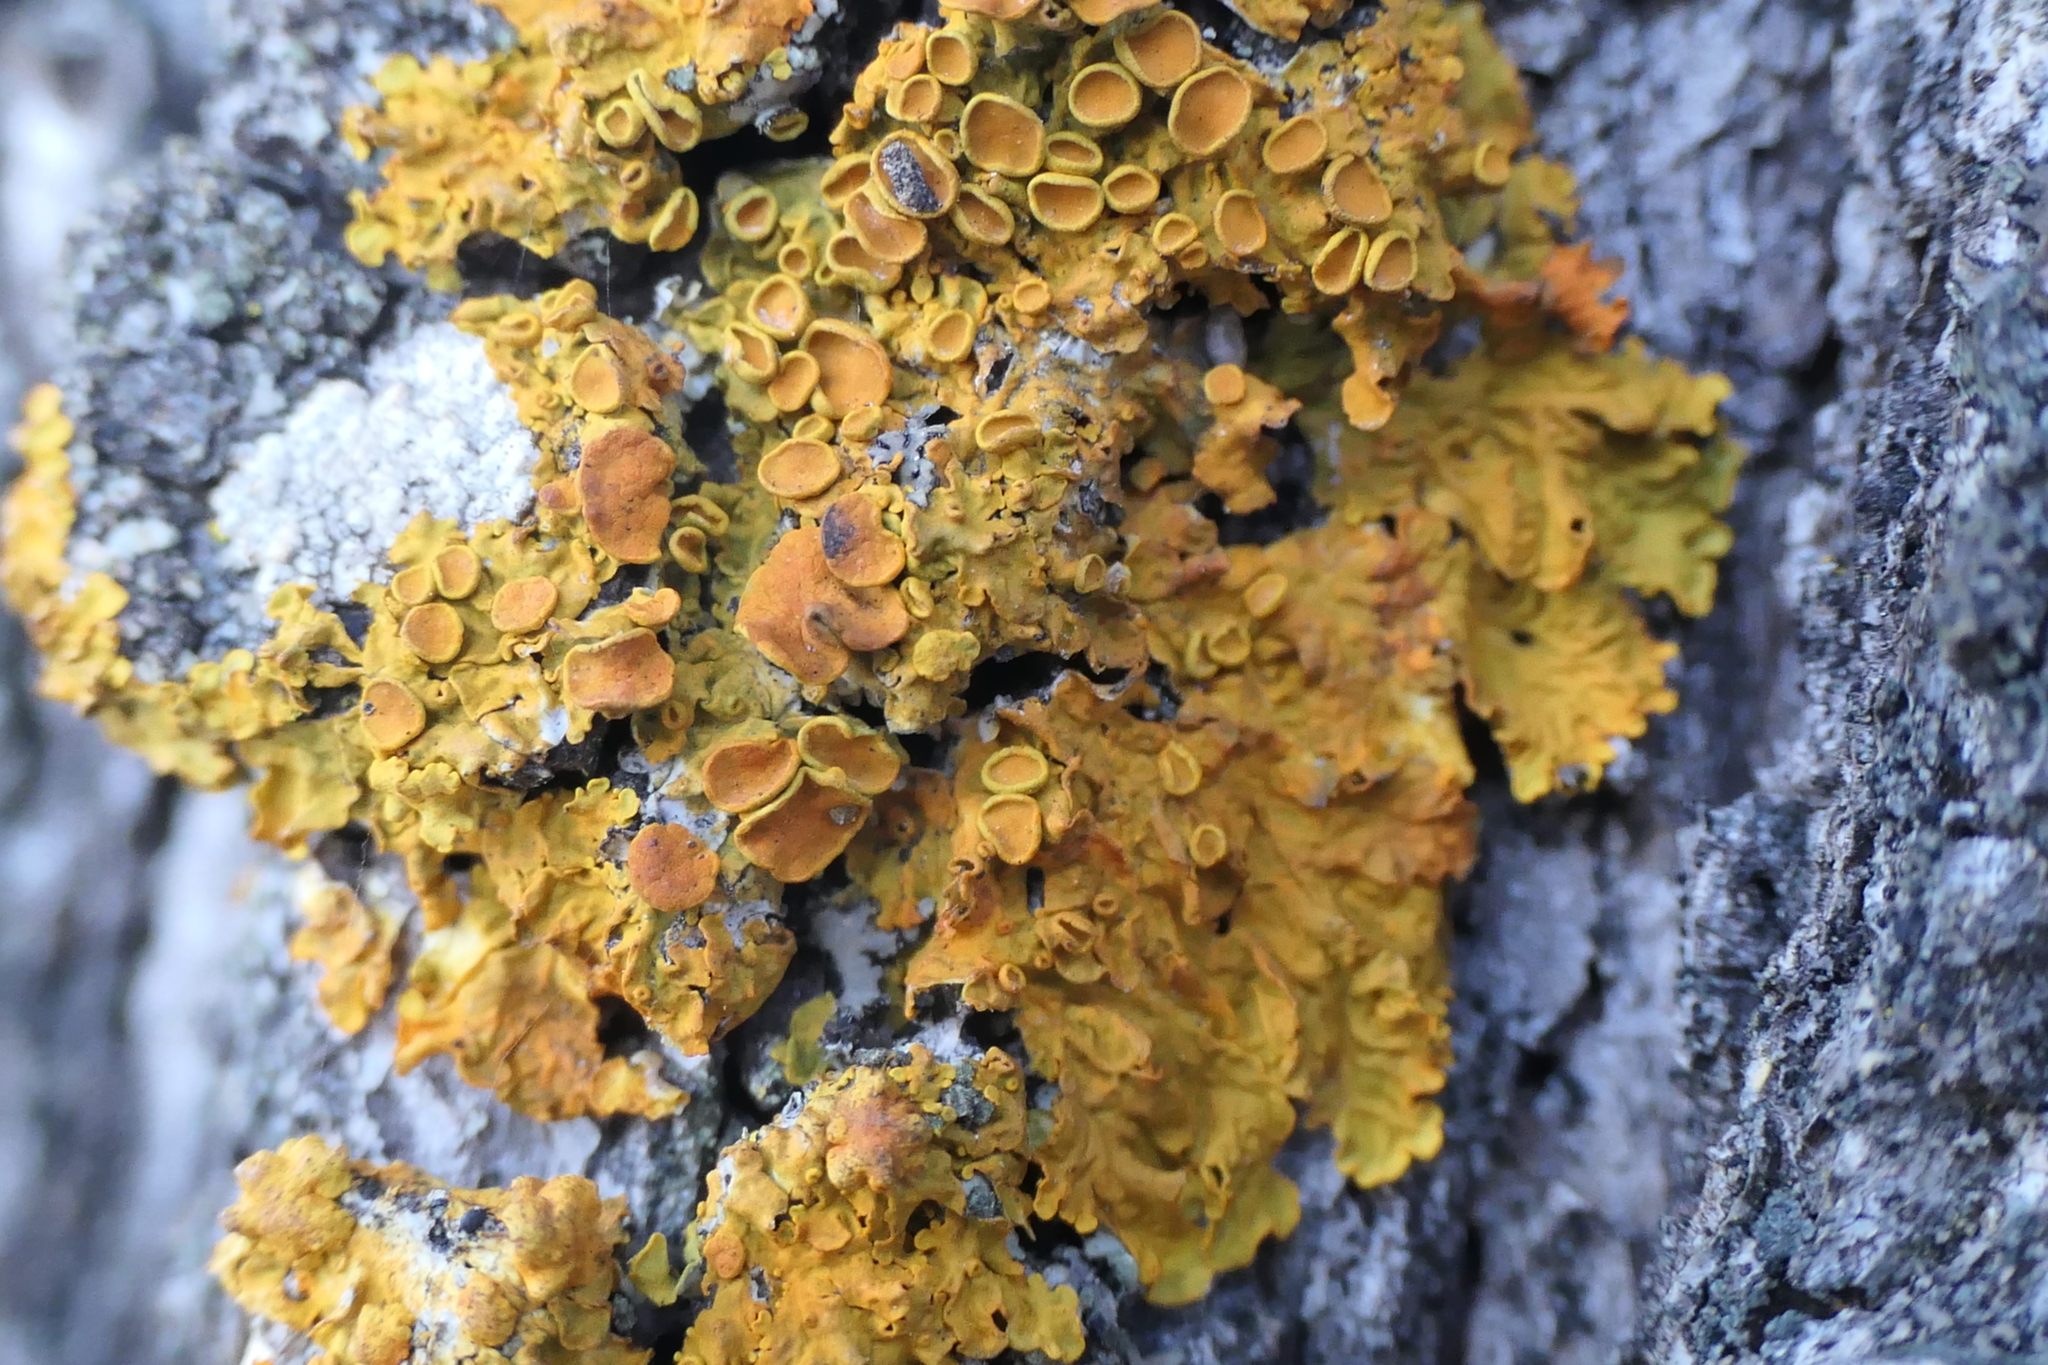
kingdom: Fungi
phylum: Ascomycota
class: Lecanoromycetes
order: Teloschistales
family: Teloschistaceae
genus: Xanthoria
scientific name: Xanthoria parietina
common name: Common orange lichen
